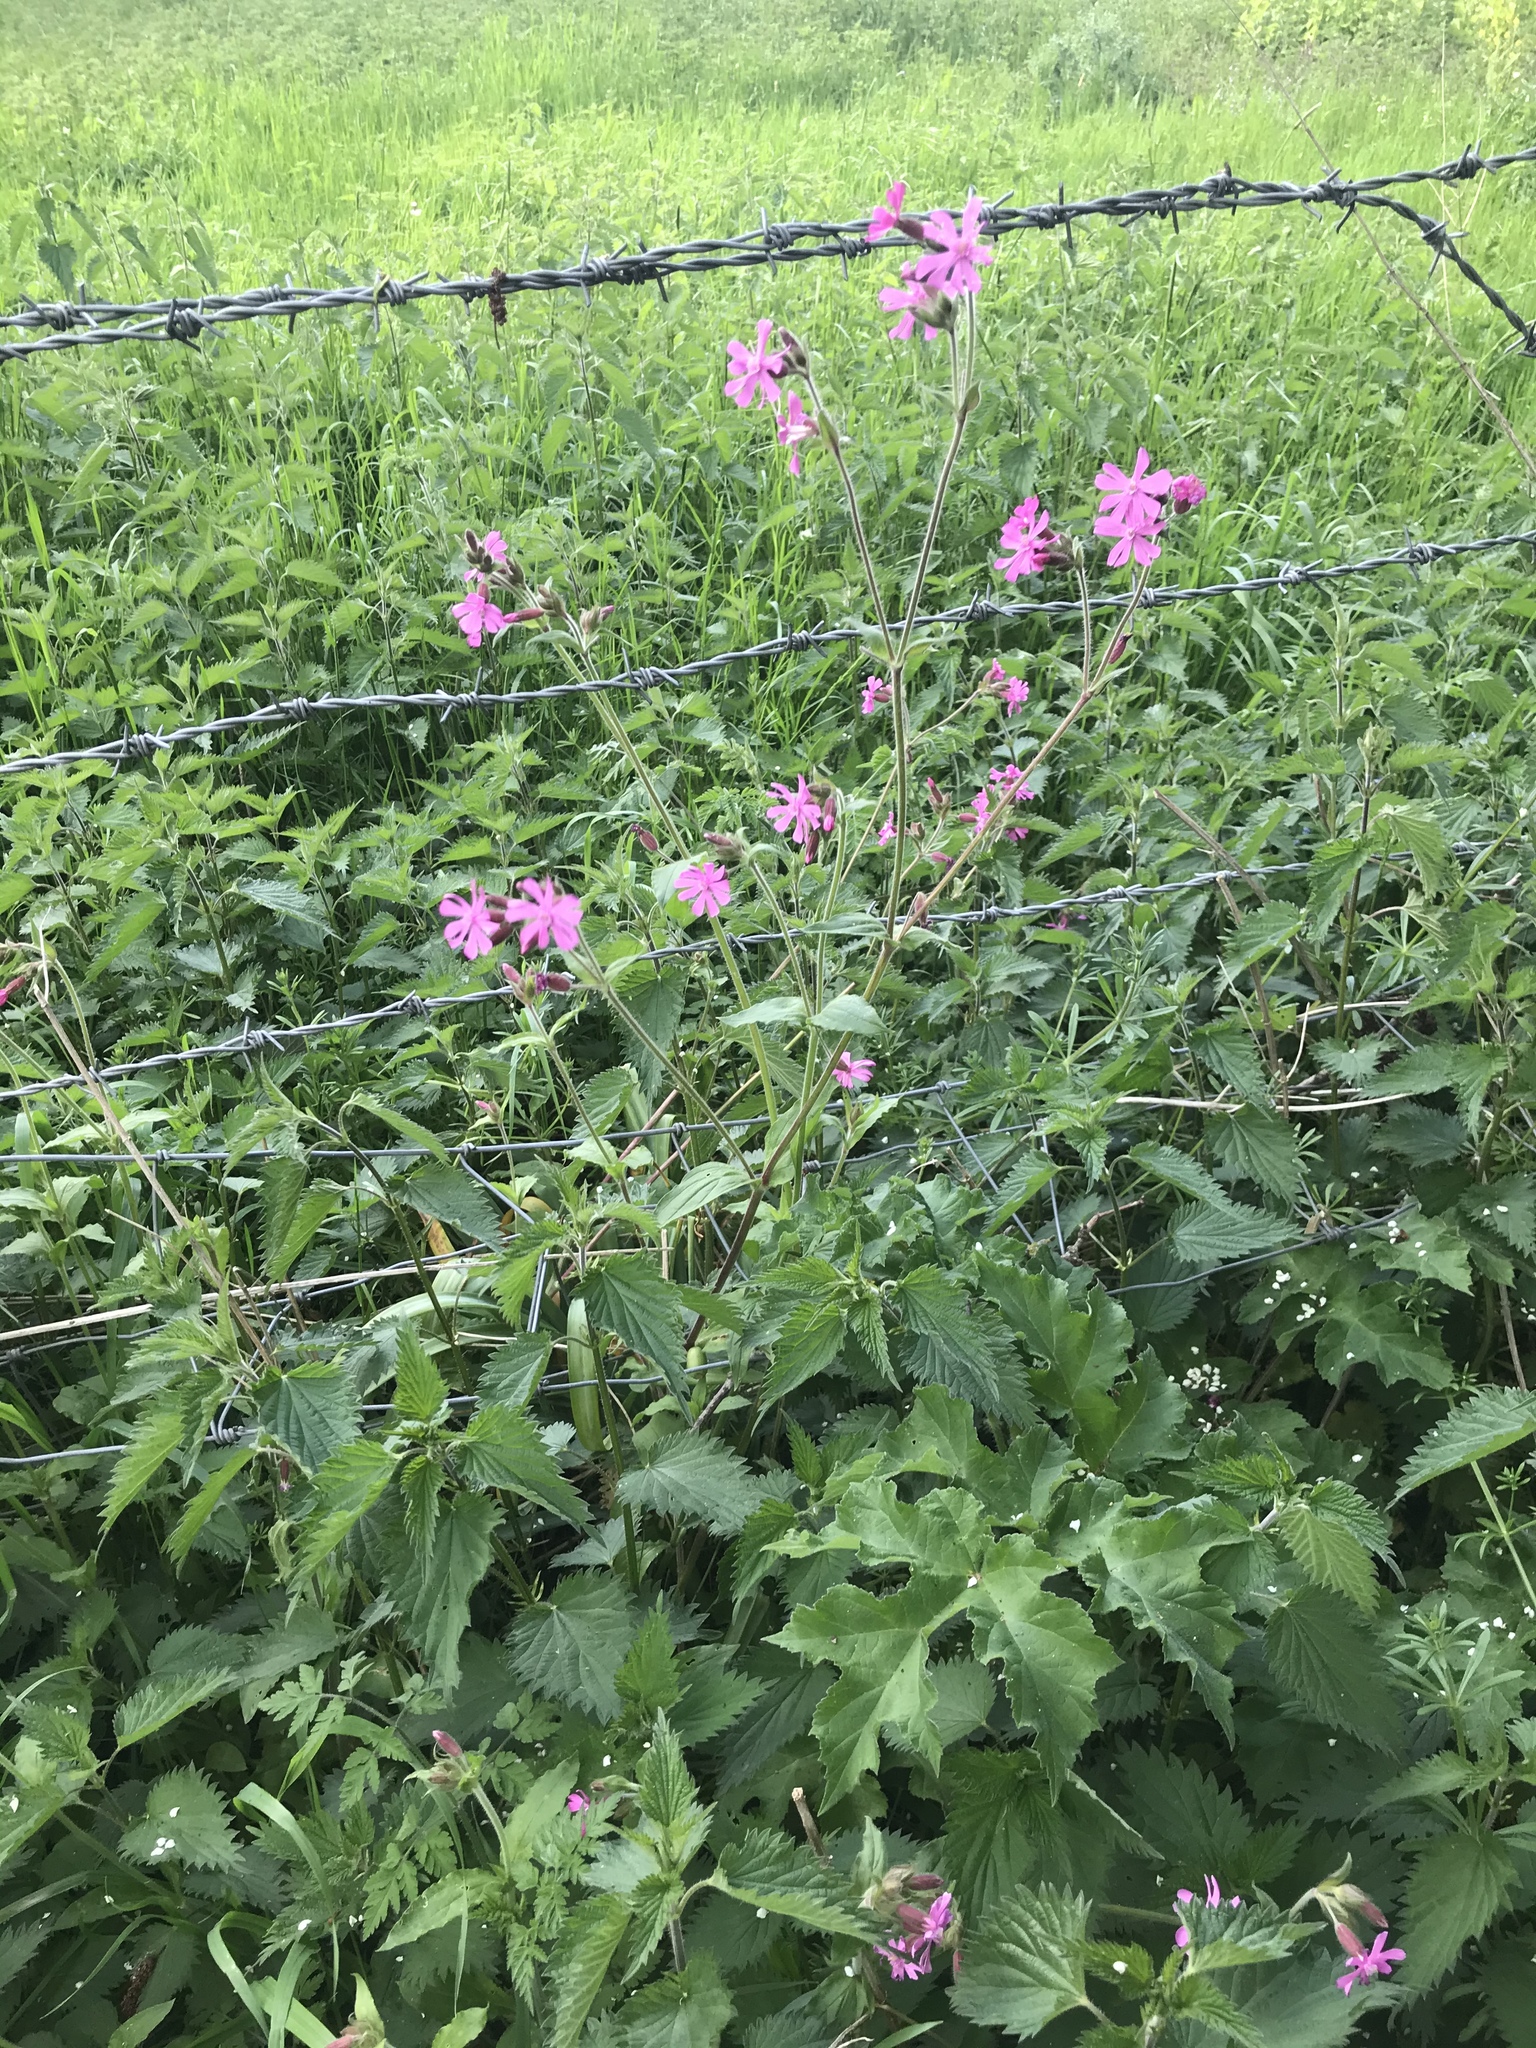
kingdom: Plantae
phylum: Tracheophyta
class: Magnoliopsida
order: Caryophyllales
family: Caryophyllaceae
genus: Silene
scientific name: Silene dioica
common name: Red campion
